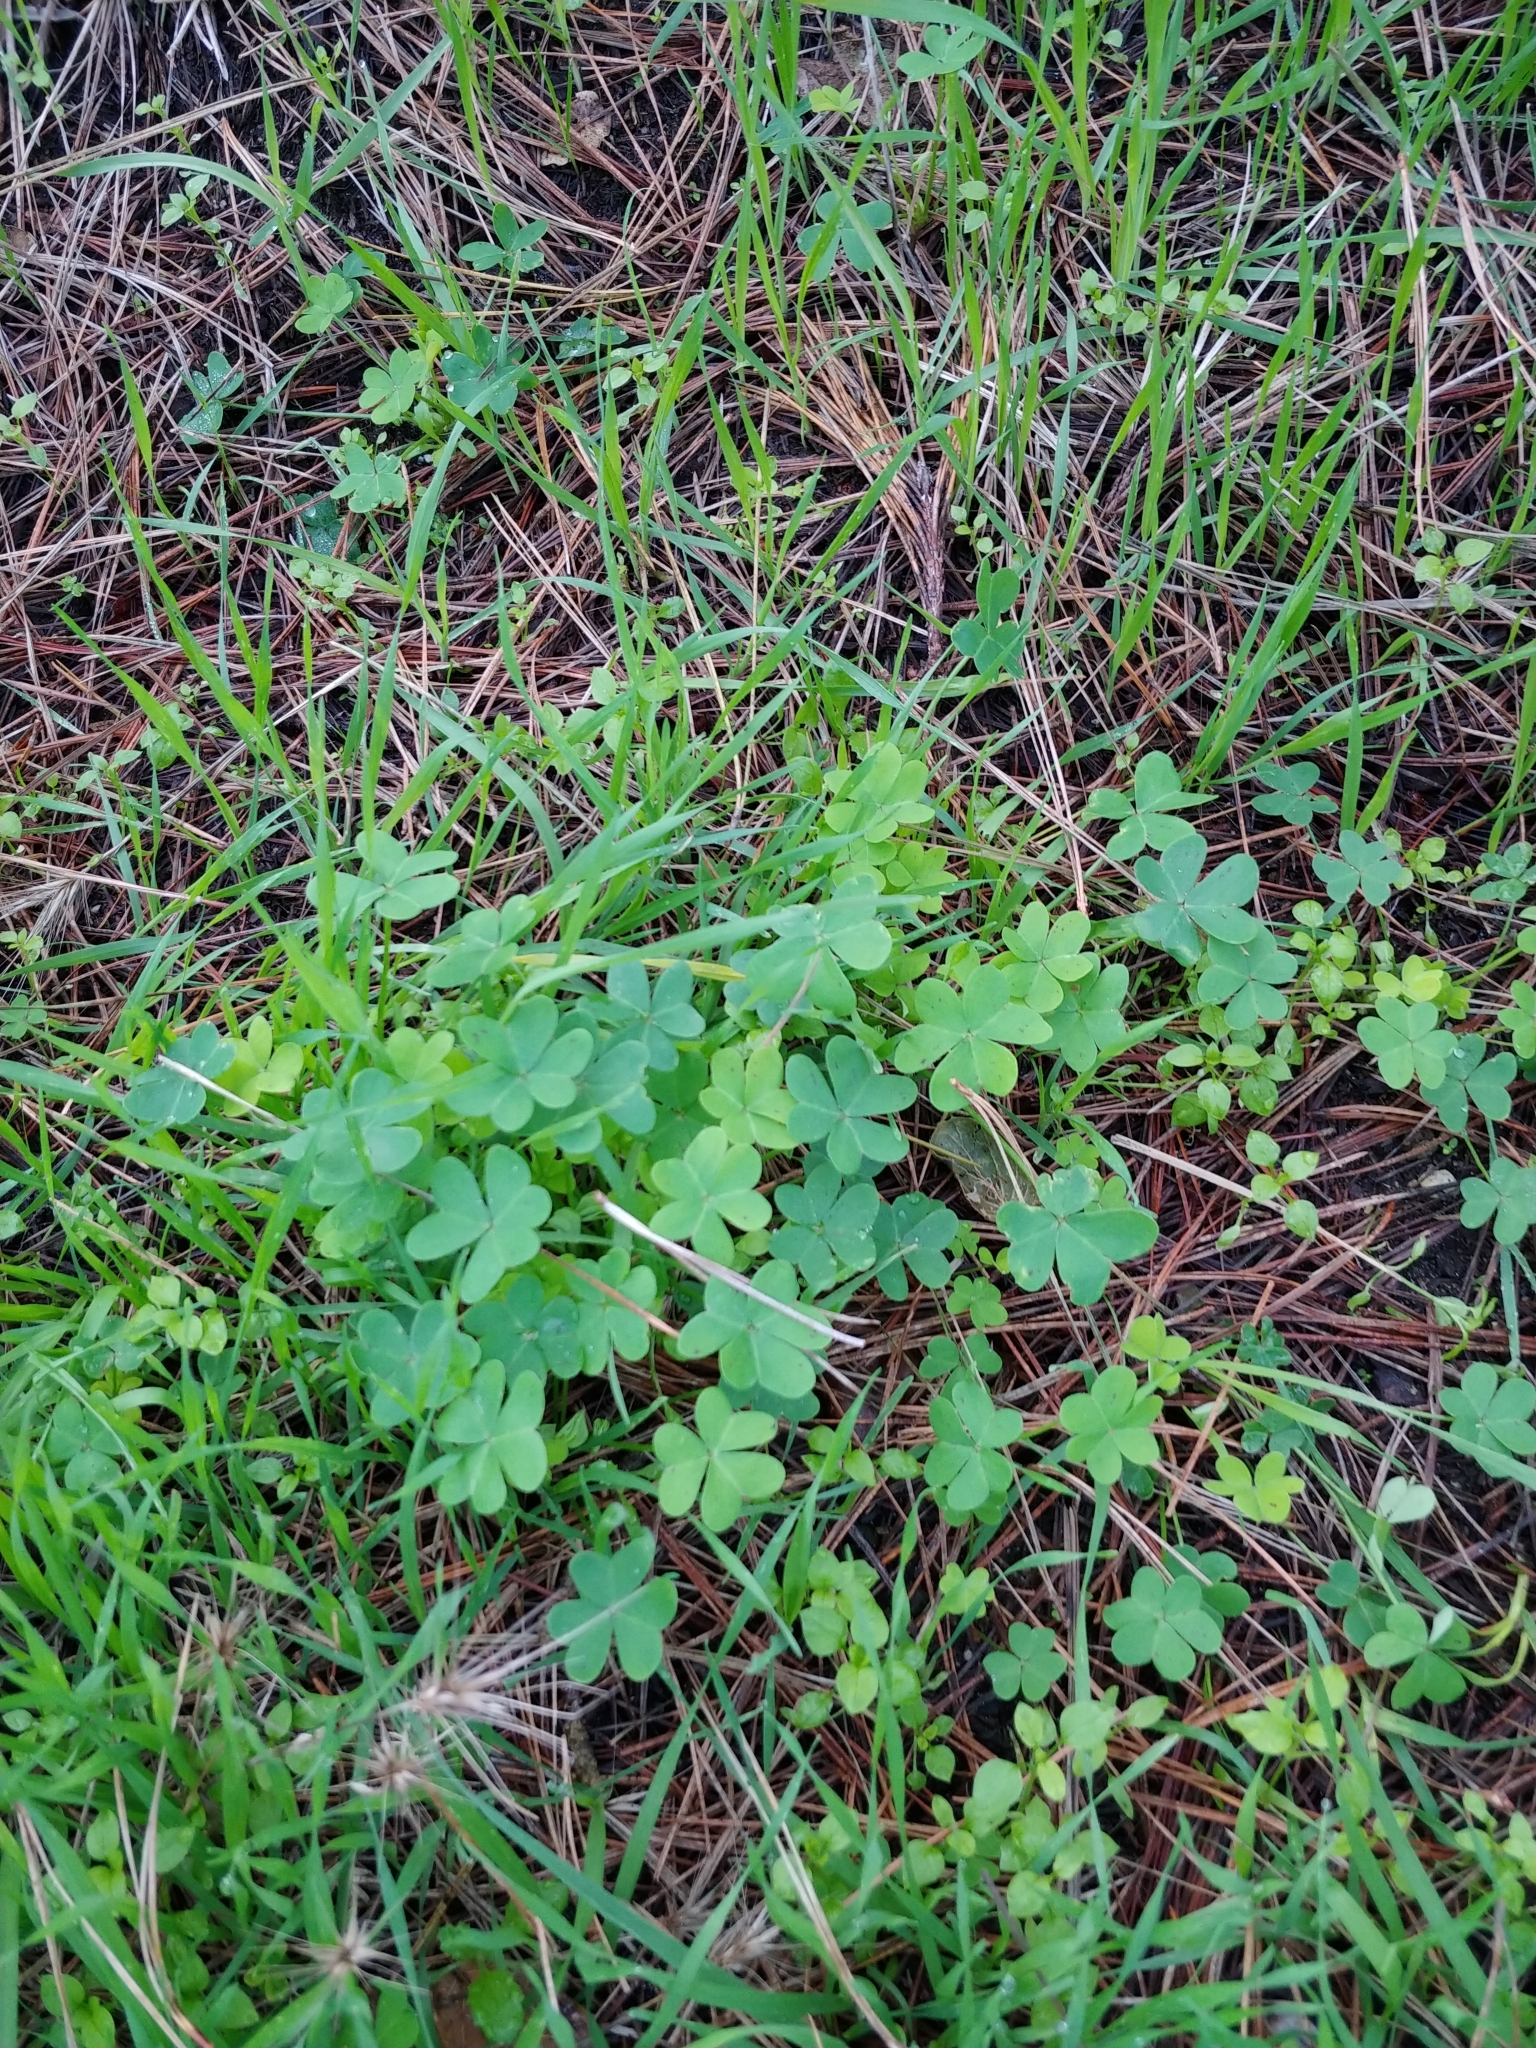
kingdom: Plantae
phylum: Tracheophyta
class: Magnoliopsida
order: Oxalidales
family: Oxalidaceae
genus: Oxalis
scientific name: Oxalis pes-caprae
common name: Bermuda-buttercup
